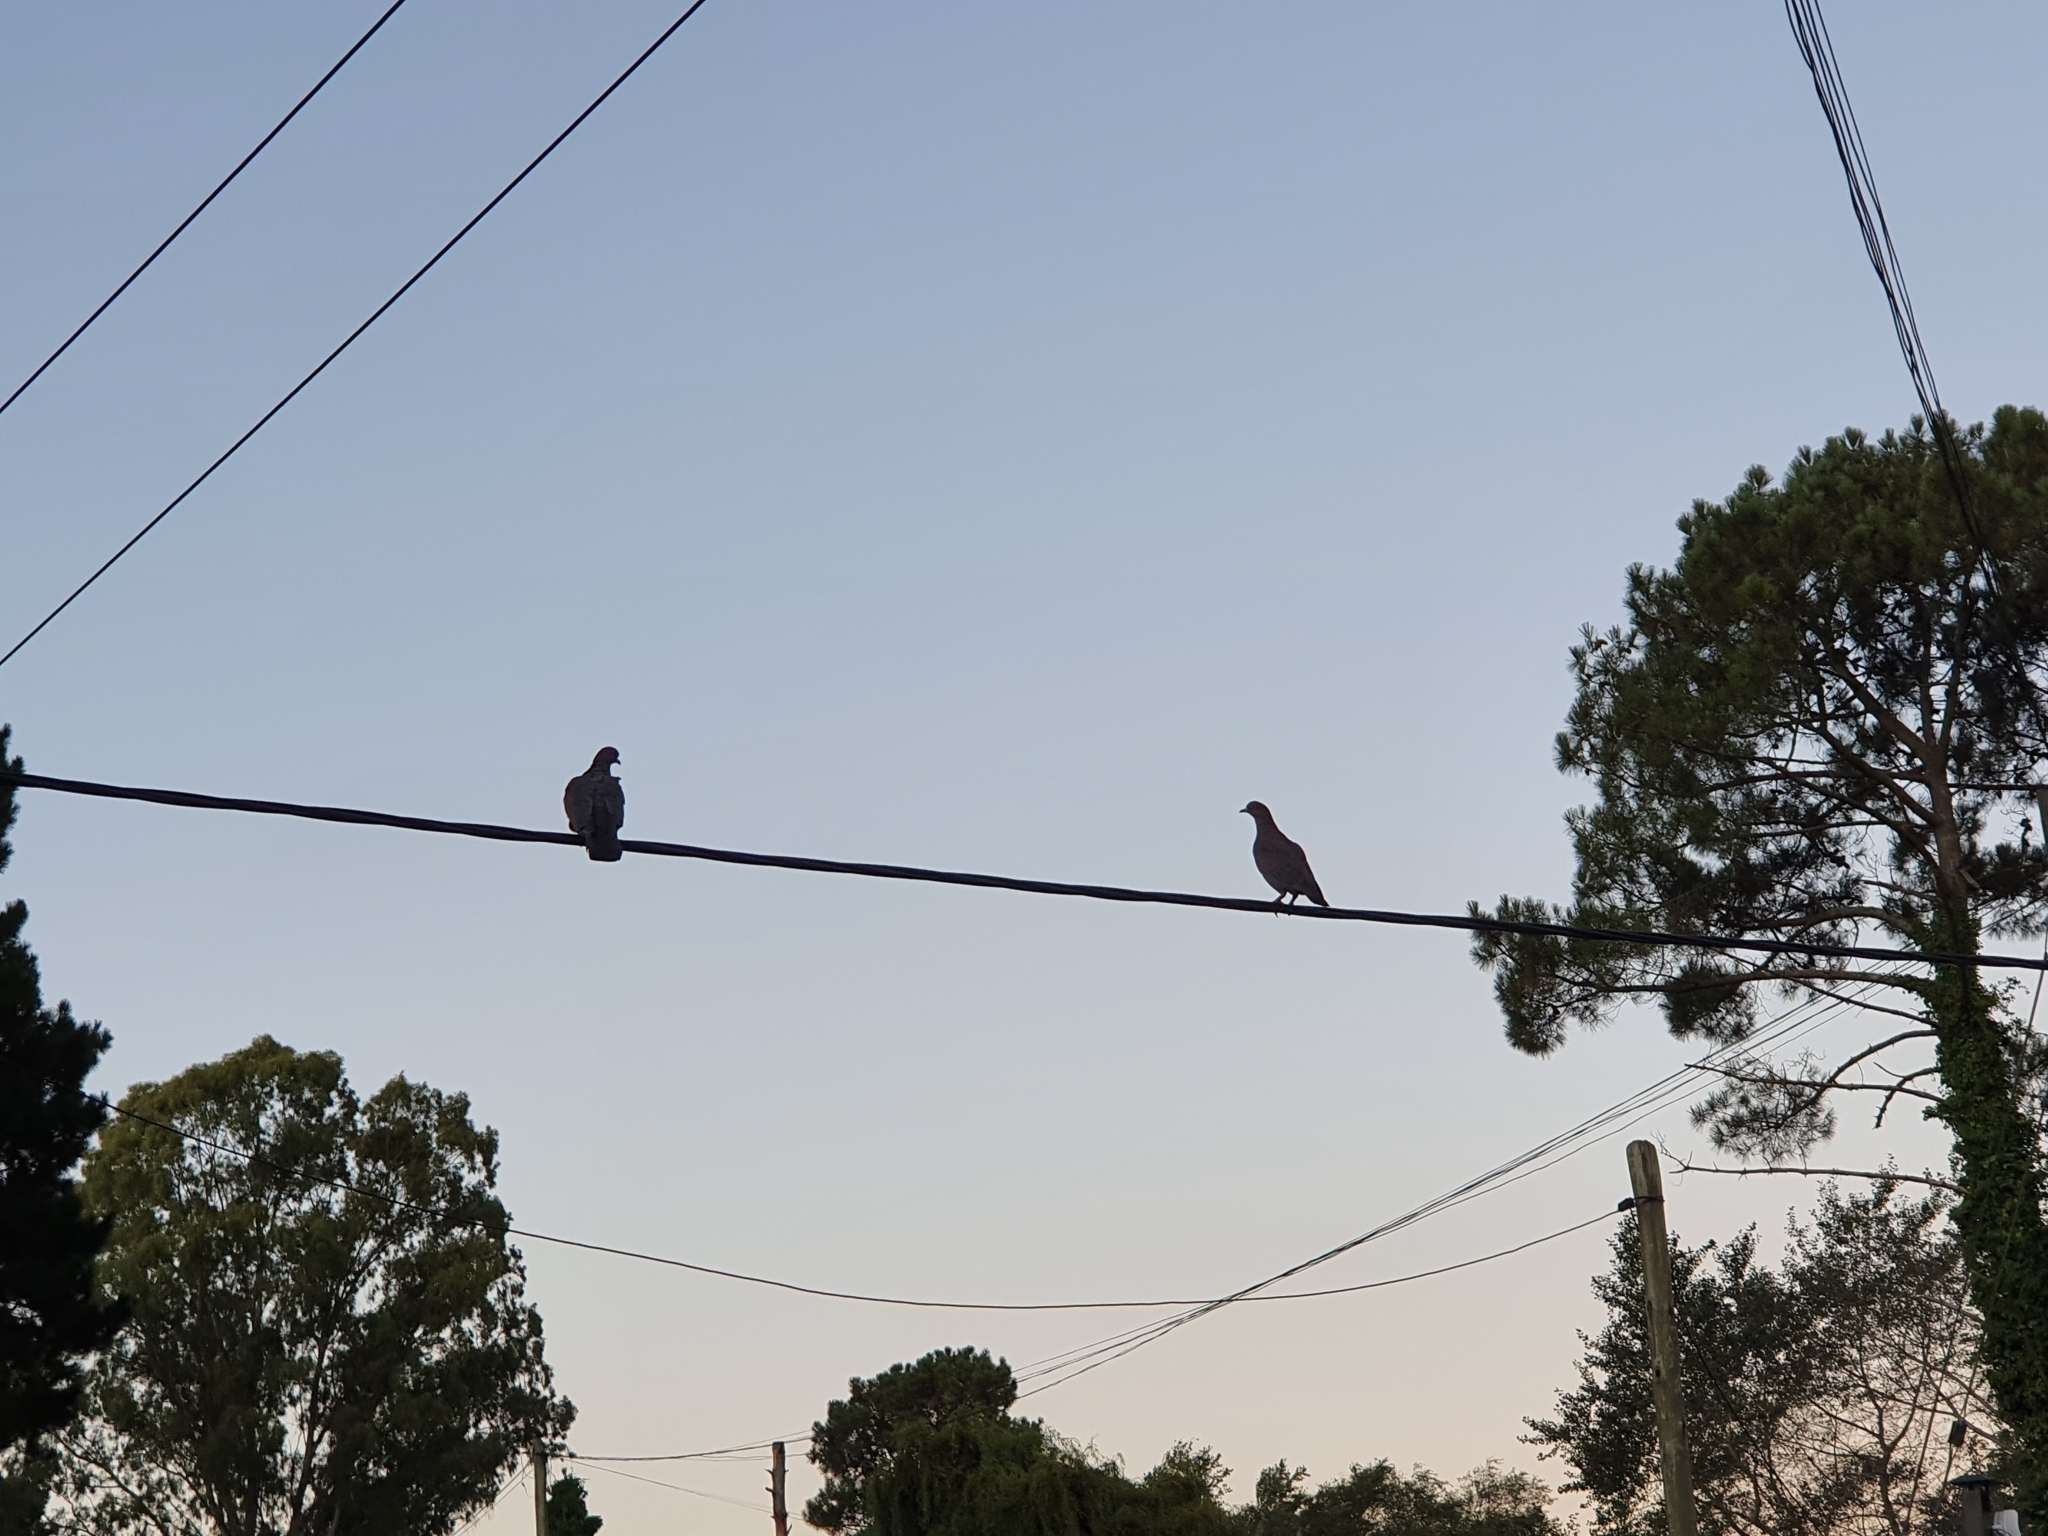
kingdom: Animalia
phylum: Chordata
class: Aves
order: Columbiformes
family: Columbidae
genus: Patagioenas
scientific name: Patagioenas picazuro
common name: Picazuro pigeon
